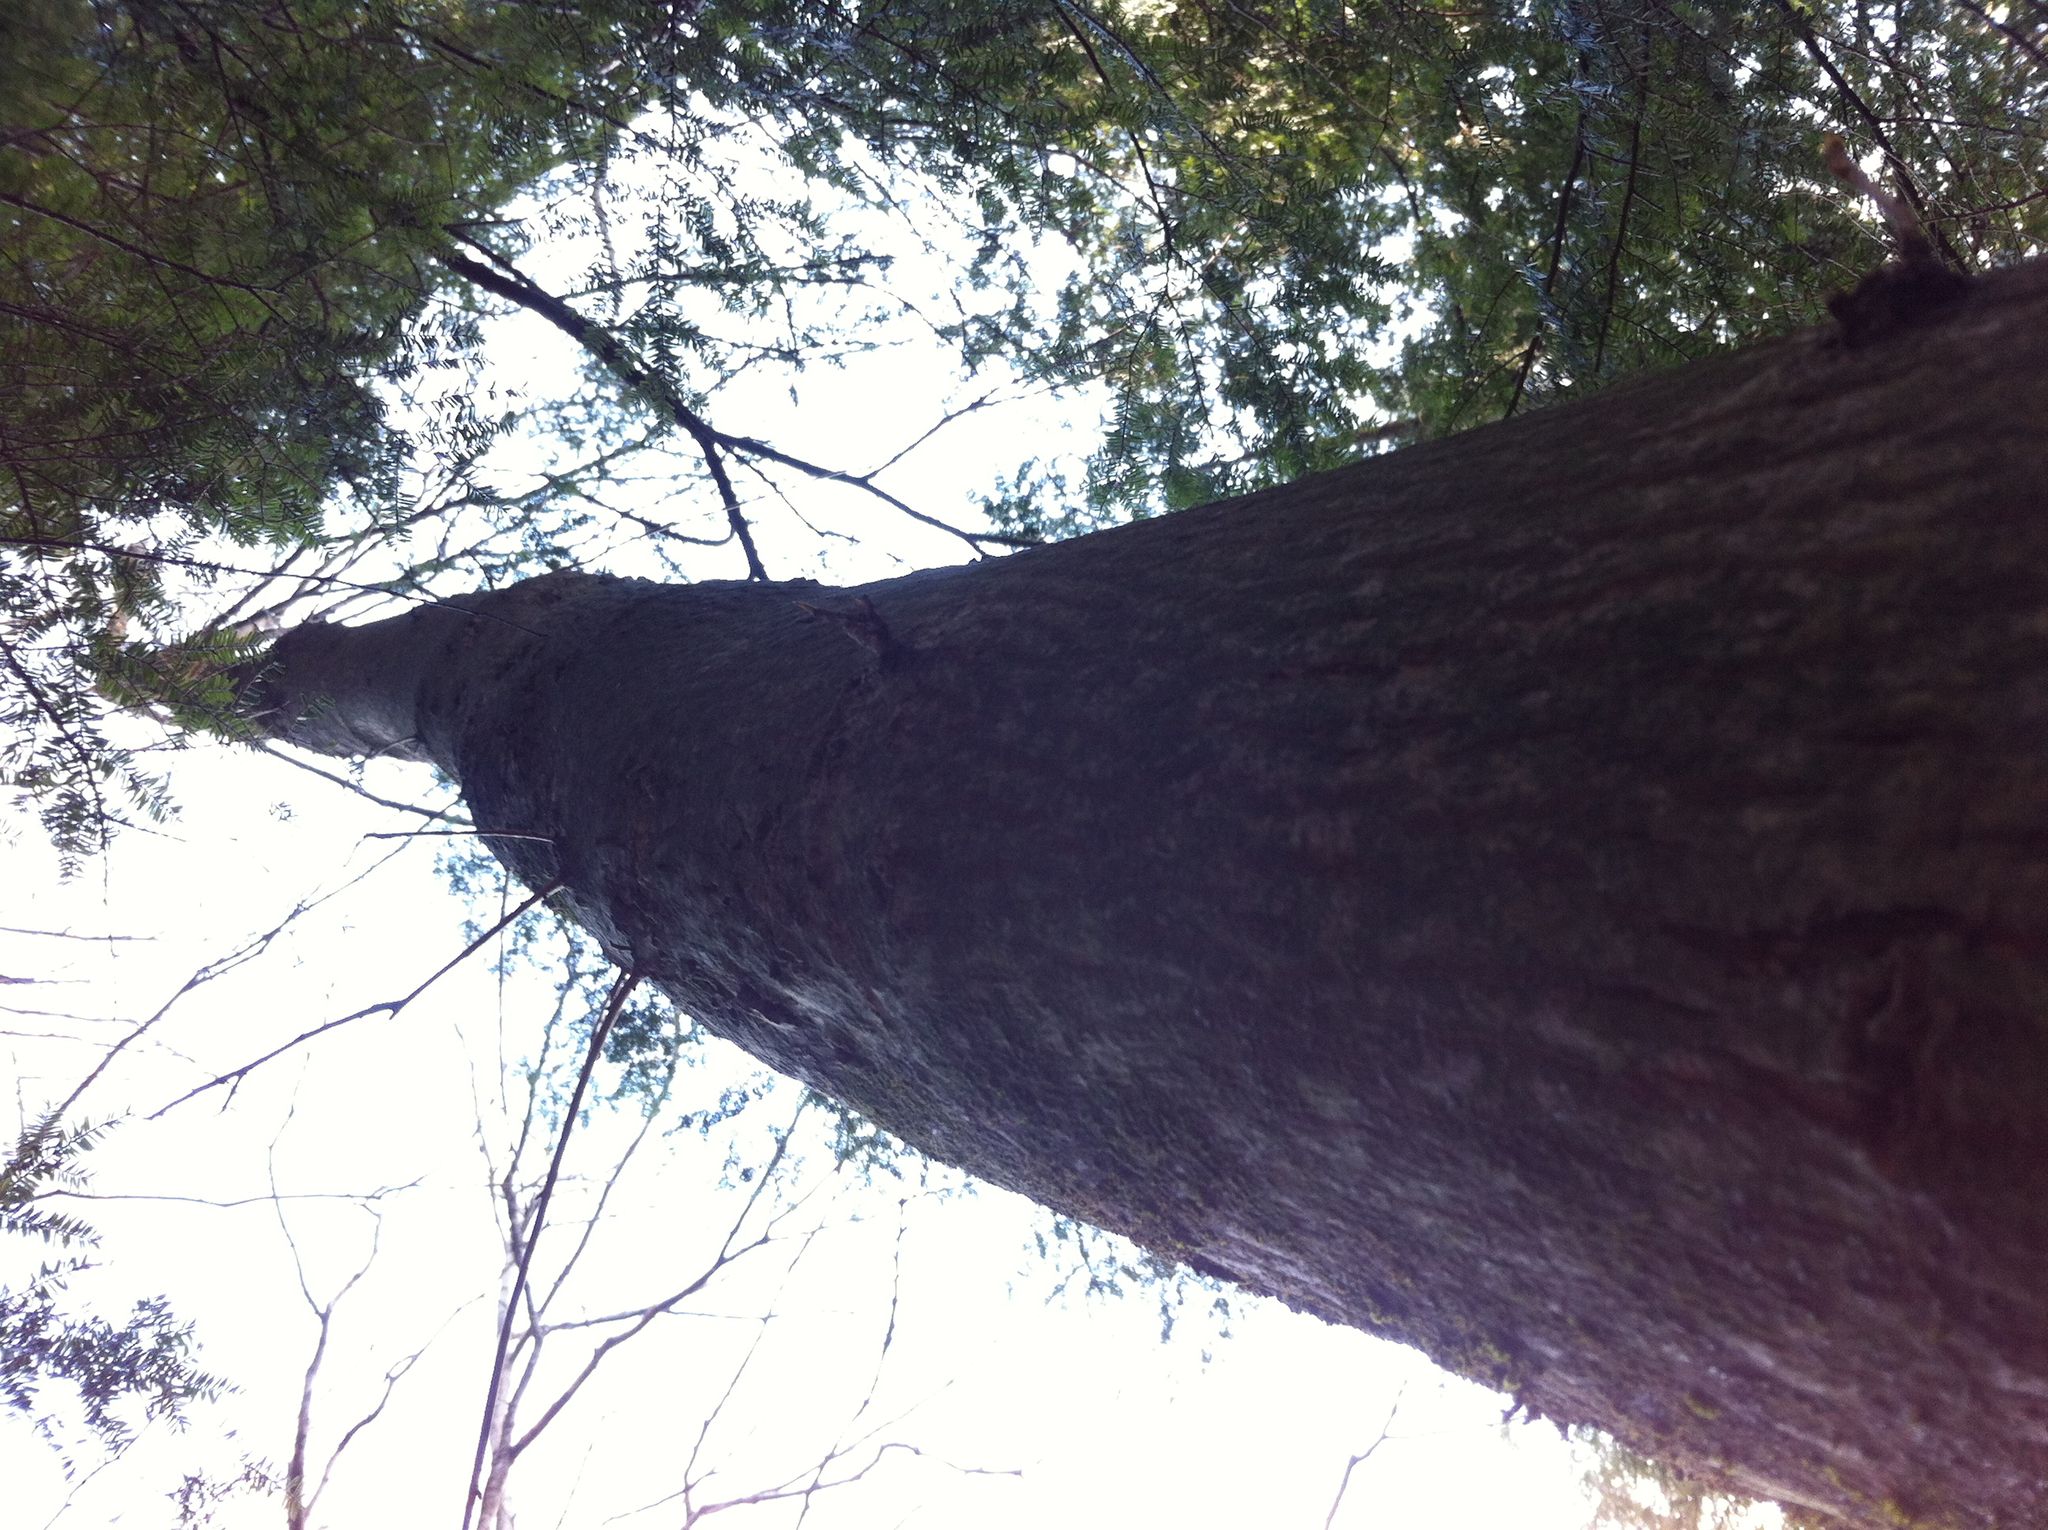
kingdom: Plantae
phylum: Tracheophyta
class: Magnoliopsida
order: Fagales
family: Juglandaceae
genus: Carya
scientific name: Carya cordiformis
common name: Bitternut hickory
